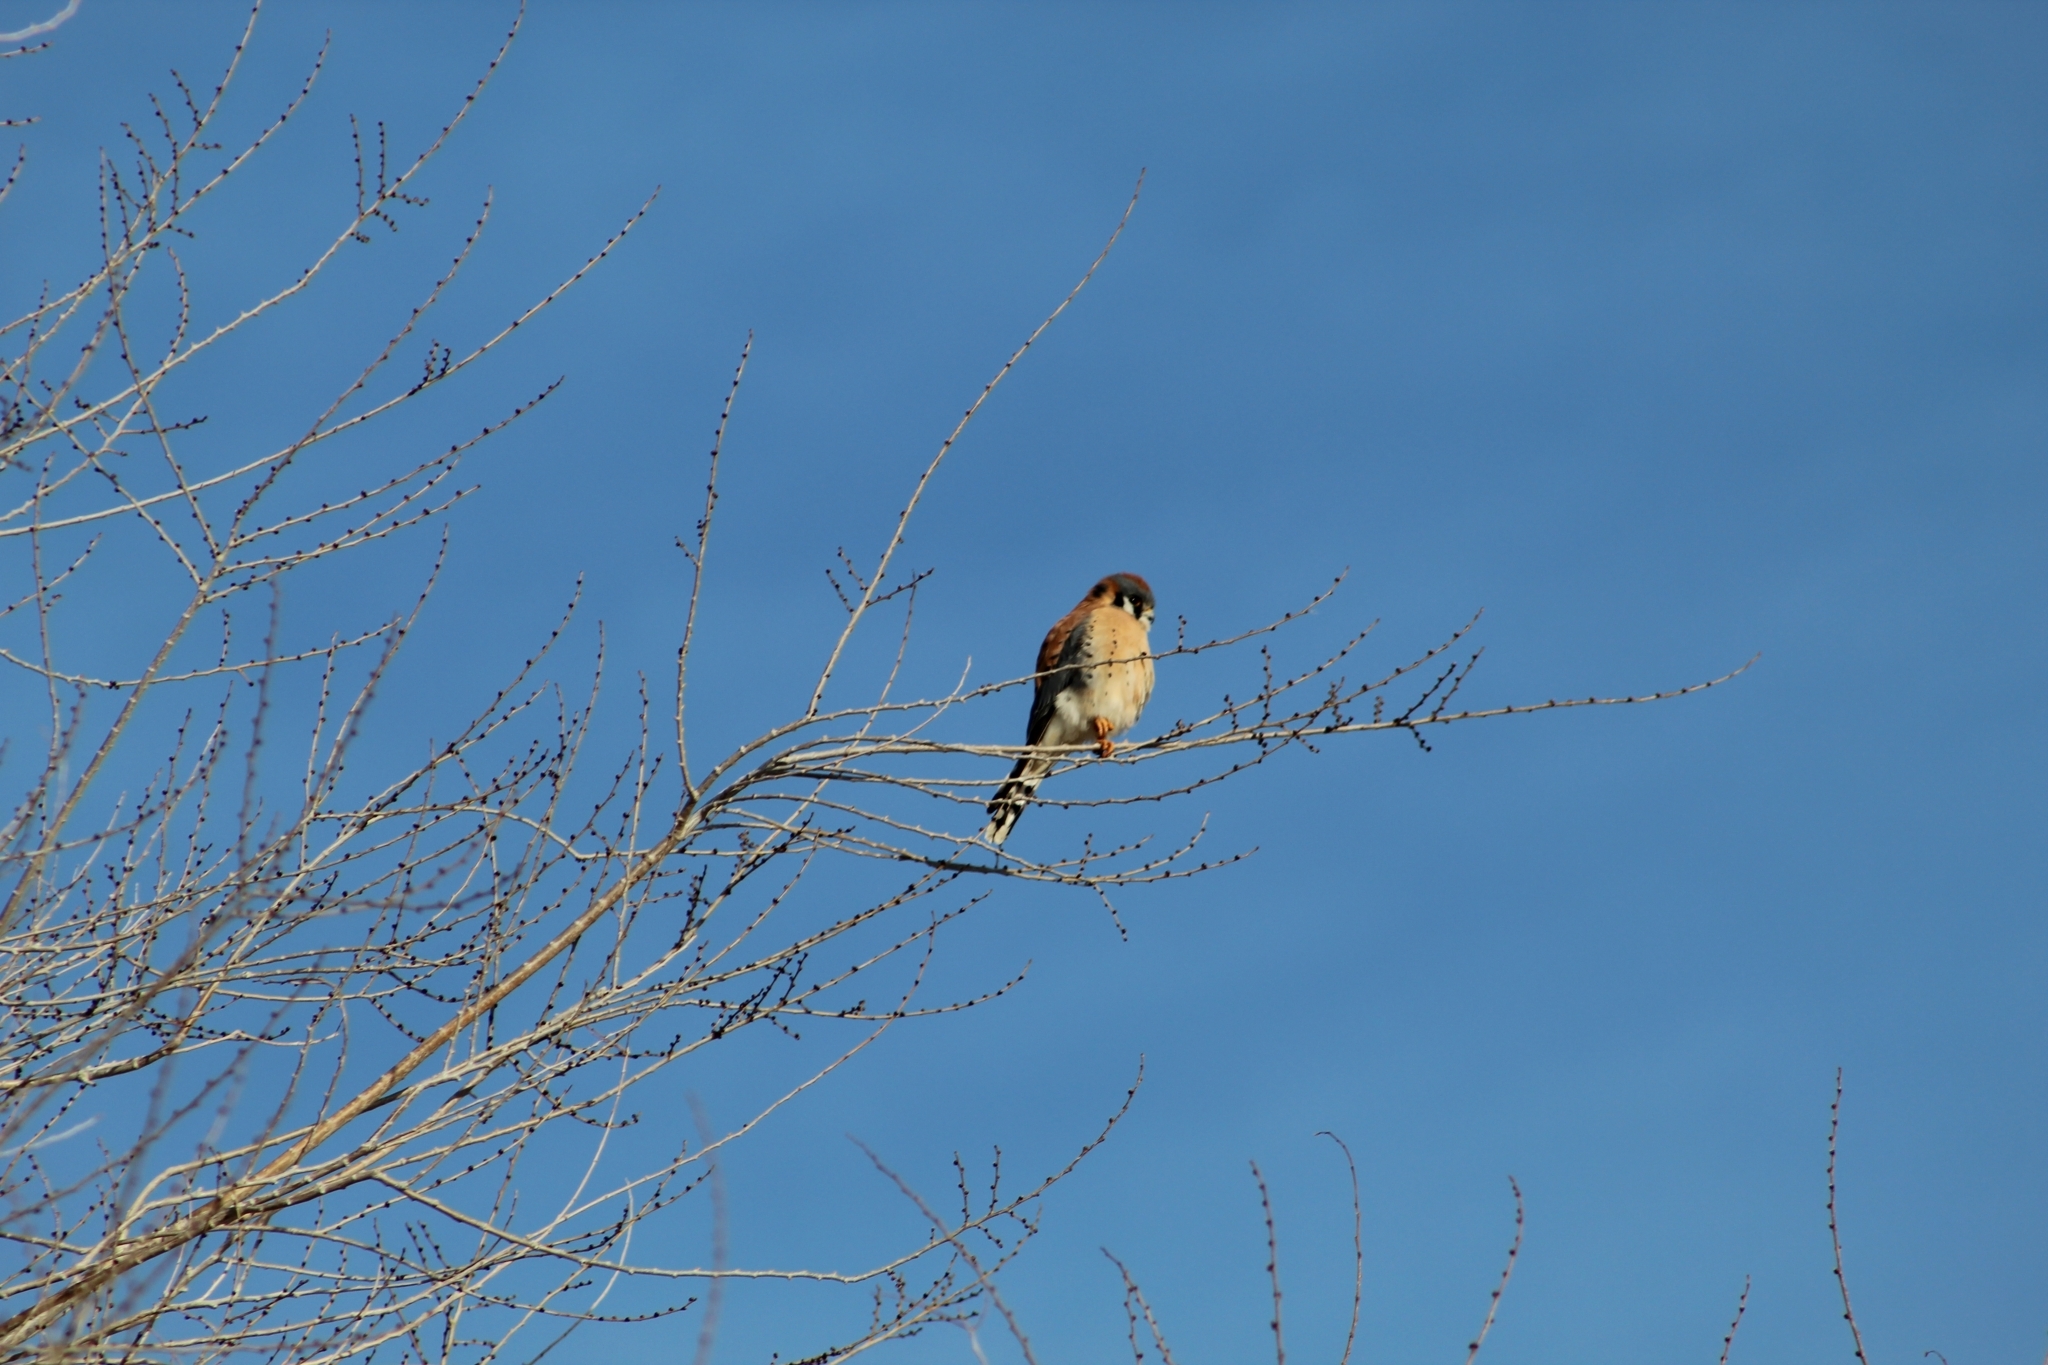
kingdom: Animalia
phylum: Chordata
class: Aves
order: Falconiformes
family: Falconidae
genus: Falco
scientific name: Falco sparverius
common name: American kestrel
